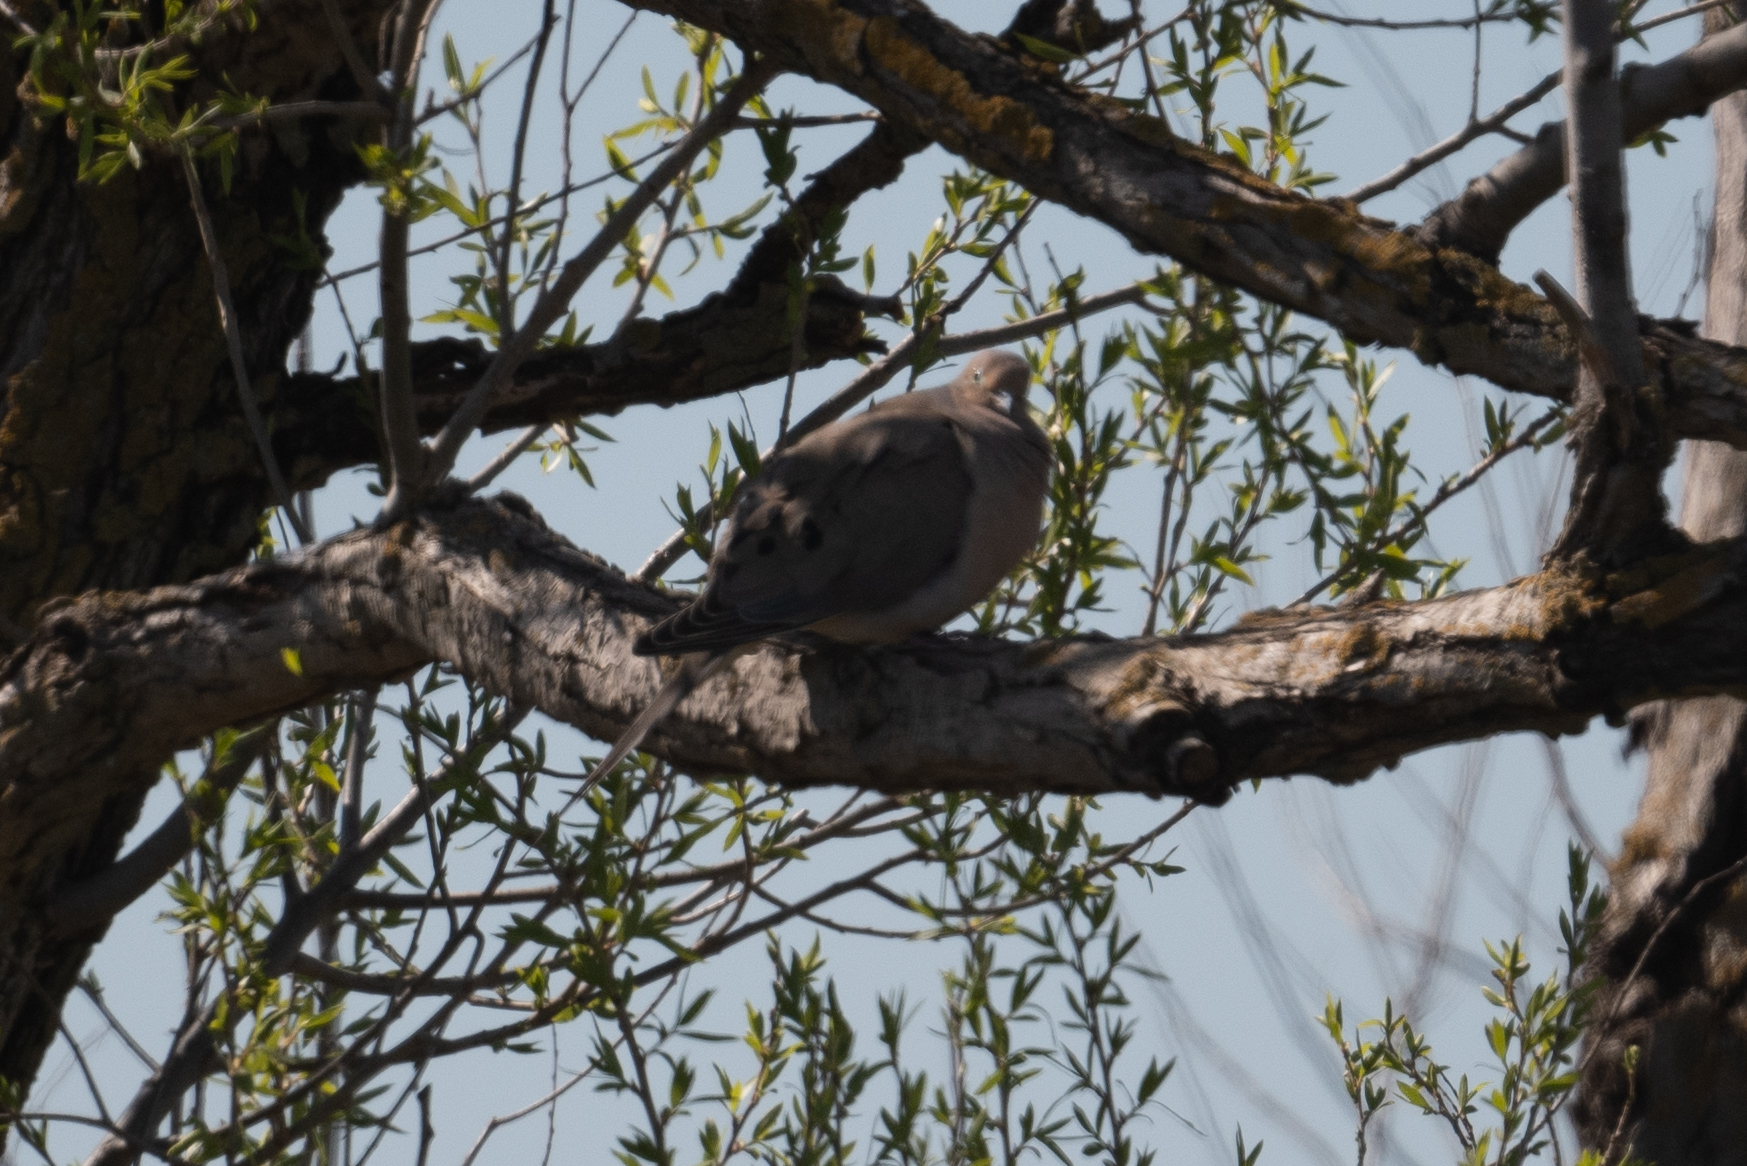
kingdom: Animalia
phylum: Chordata
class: Aves
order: Columbiformes
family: Columbidae
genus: Zenaida
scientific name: Zenaida macroura
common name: Mourning dove
